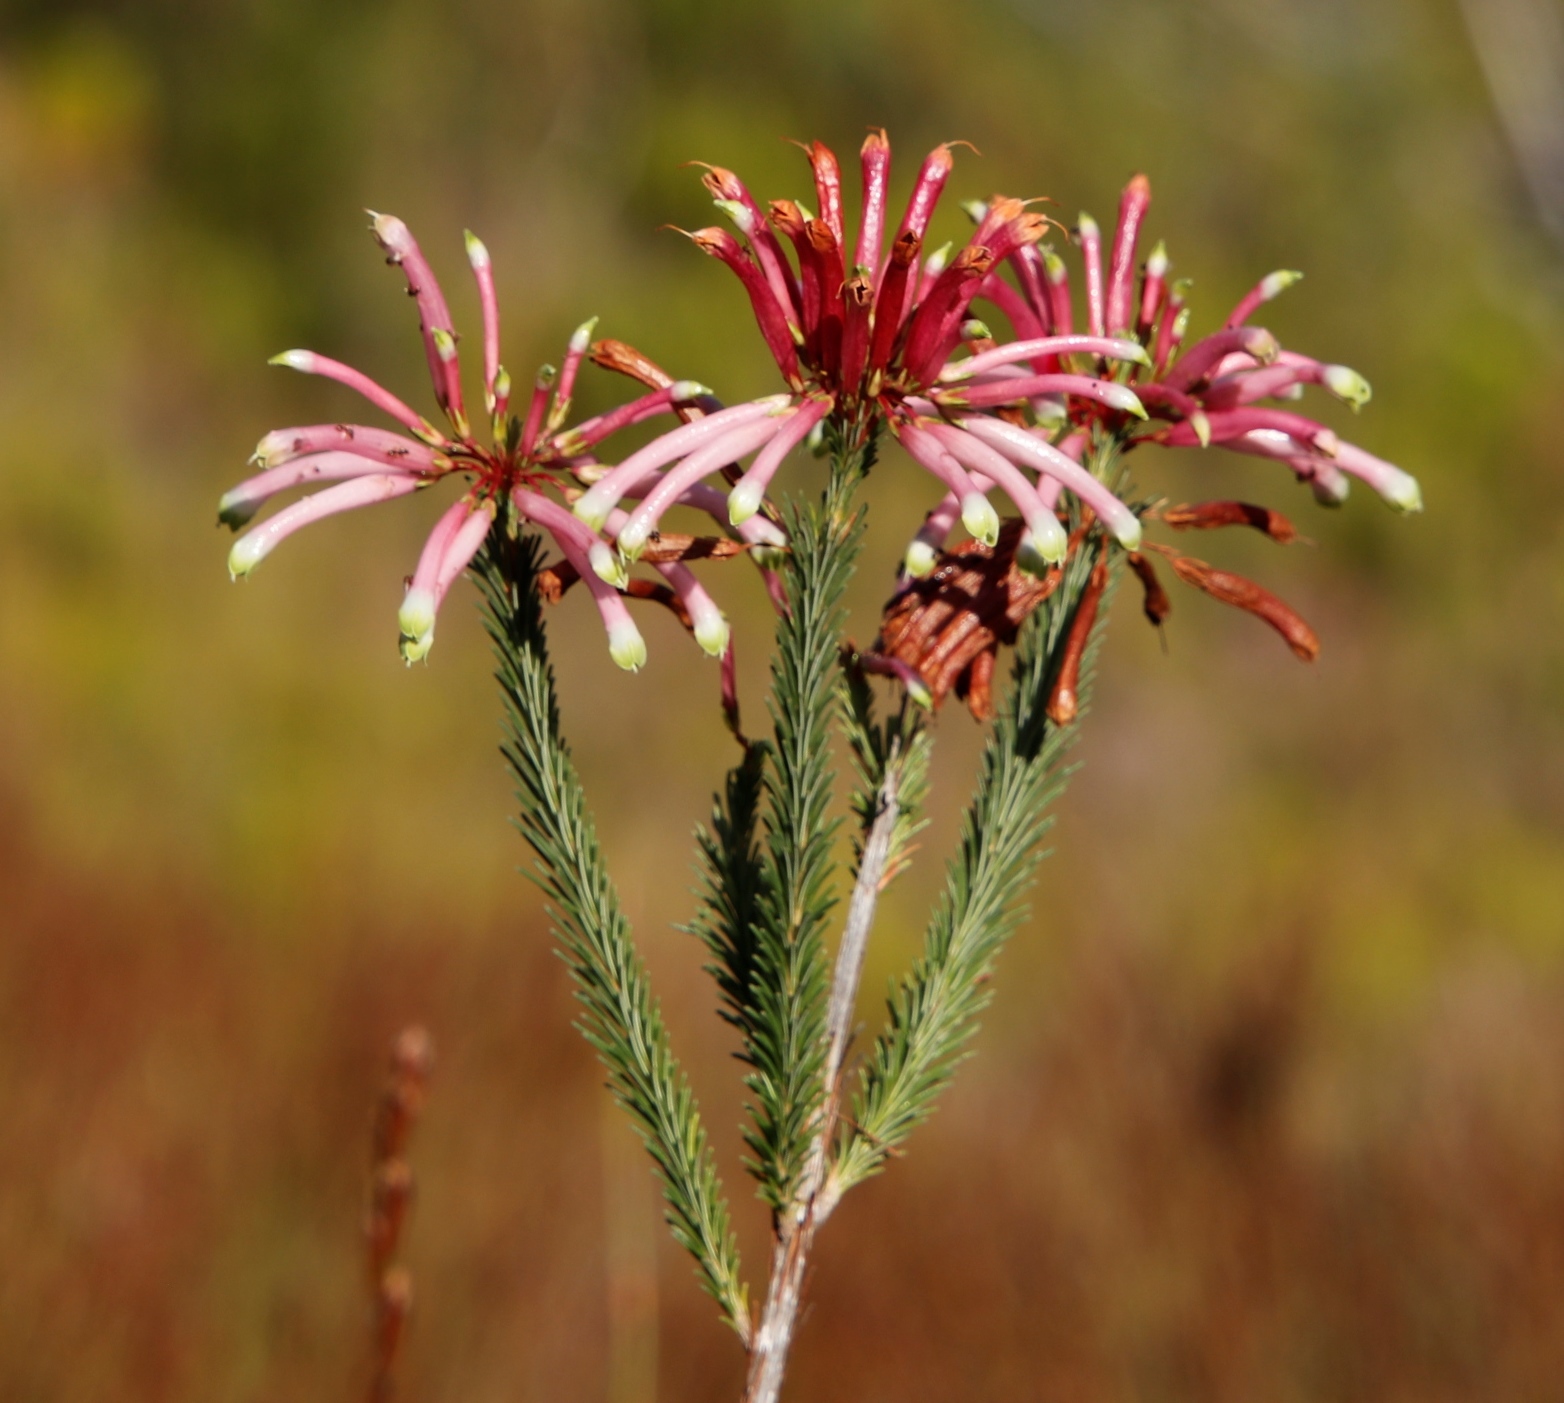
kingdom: Plantae
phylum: Tracheophyta
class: Magnoliopsida
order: Ericales
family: Ericaceae
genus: Erica
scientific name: Erica fascicularis
